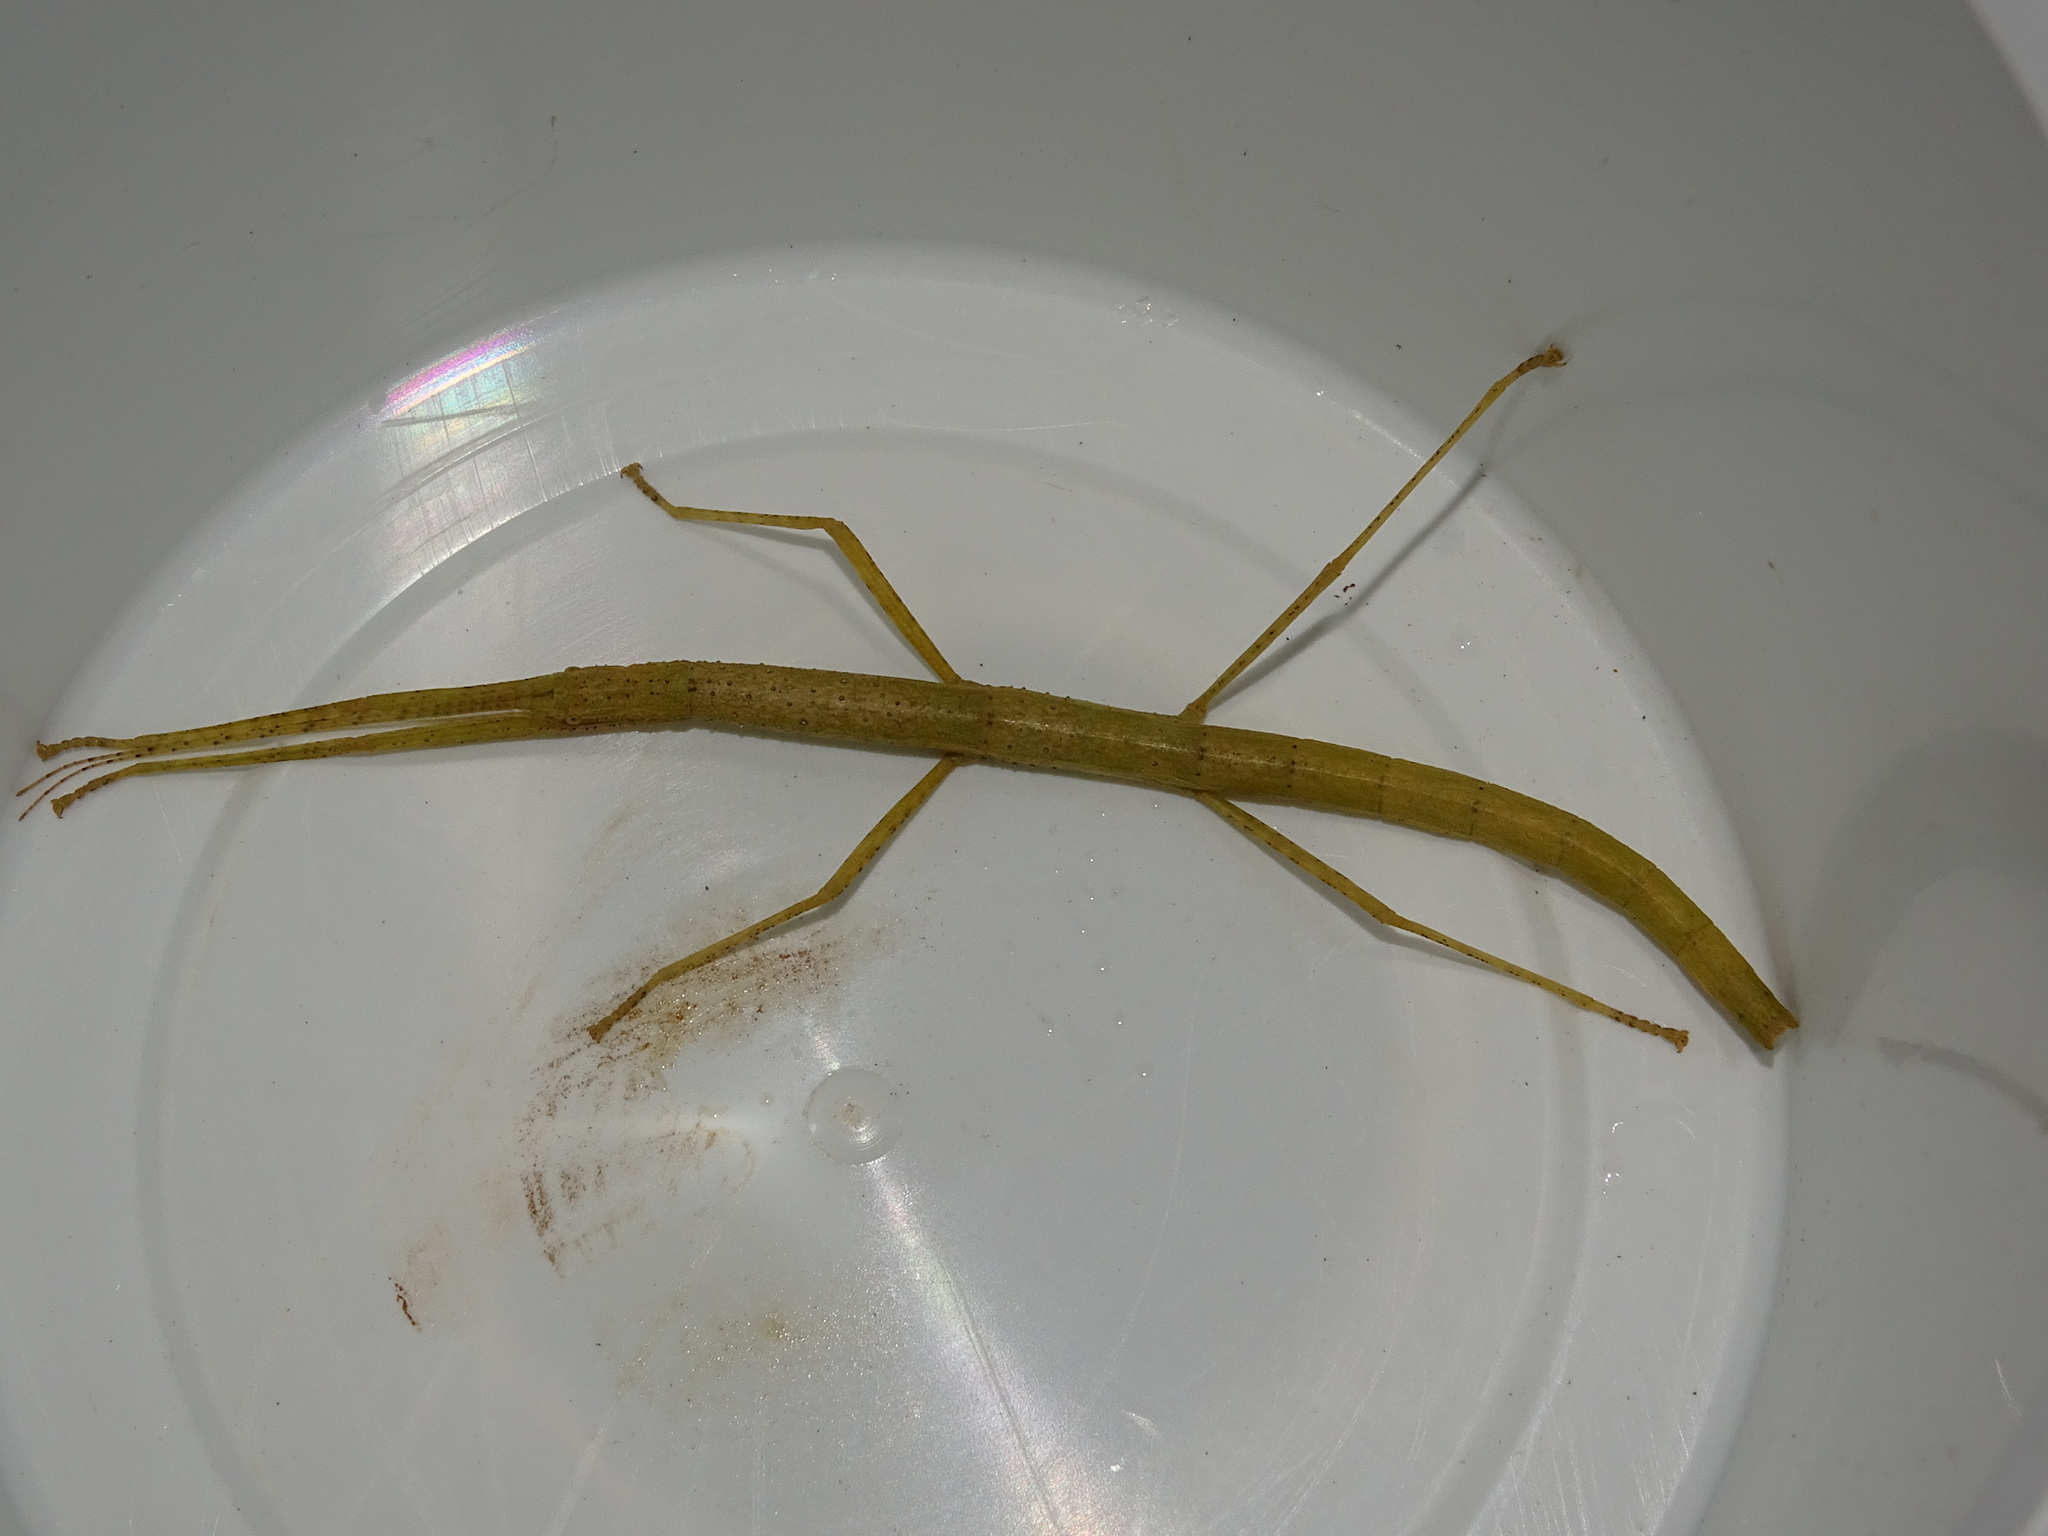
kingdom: Animalia
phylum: Arthropoda
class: Insecta
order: Phasmida
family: Lonchodidae
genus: Carausius
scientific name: Carausius morosus
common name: Indian stick insect
